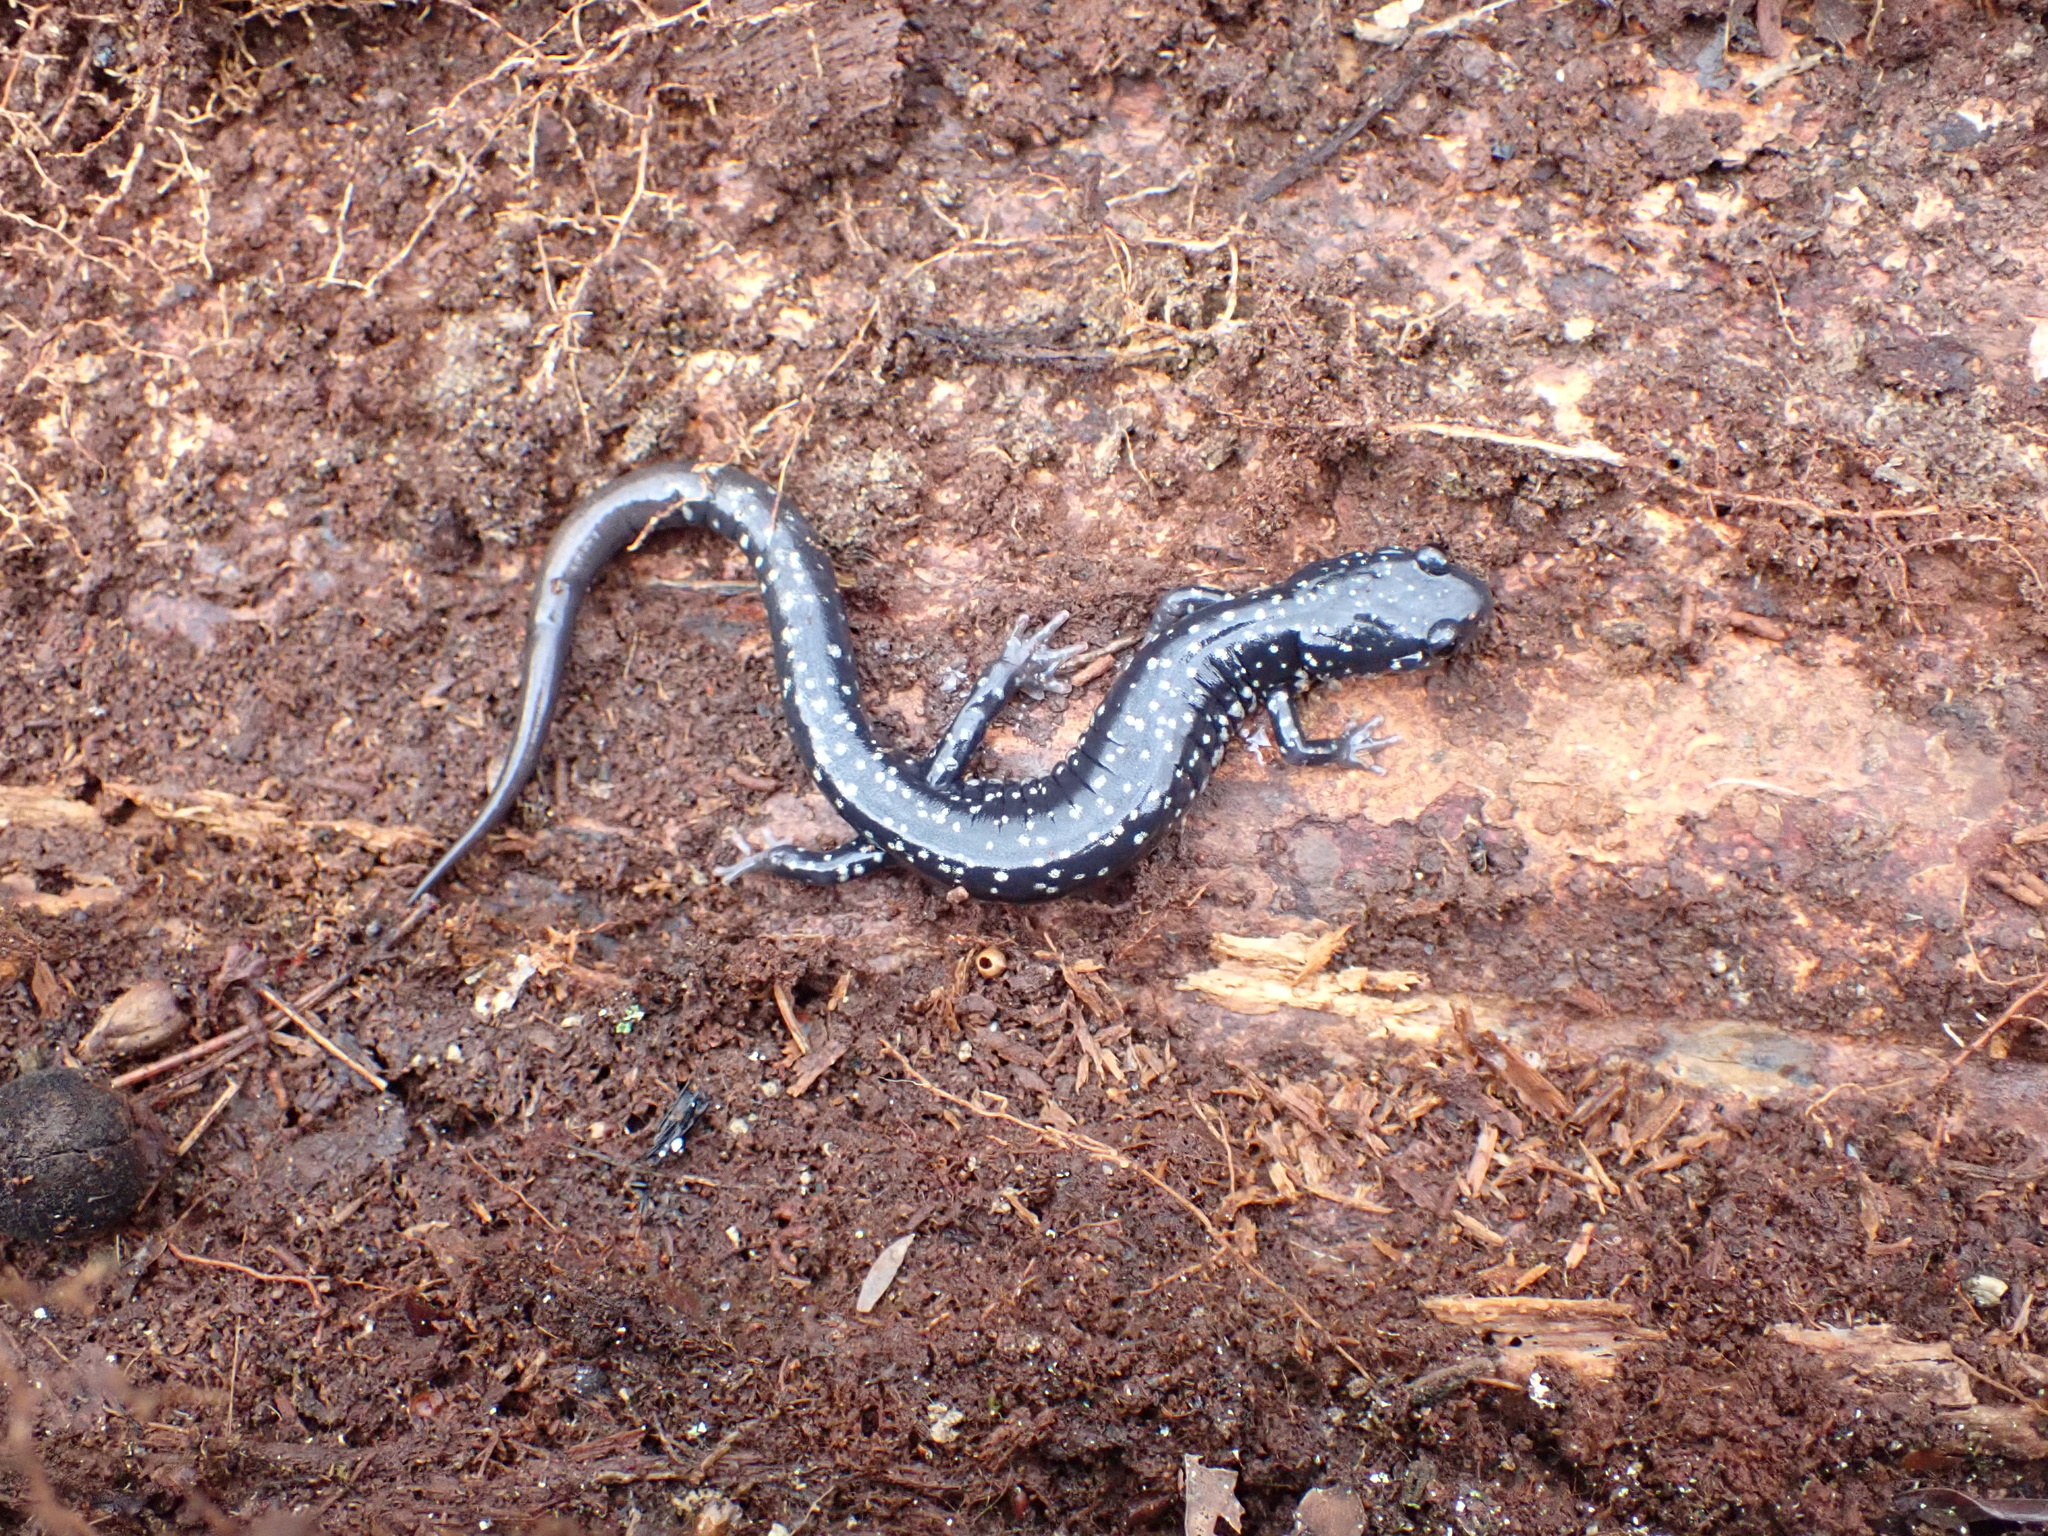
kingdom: Animalia
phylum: Chordata
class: Amphibia
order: Caudata
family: Plethodontidae
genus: Plethodon
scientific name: Plethodon glutinosus
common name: Northern slimy salamander
